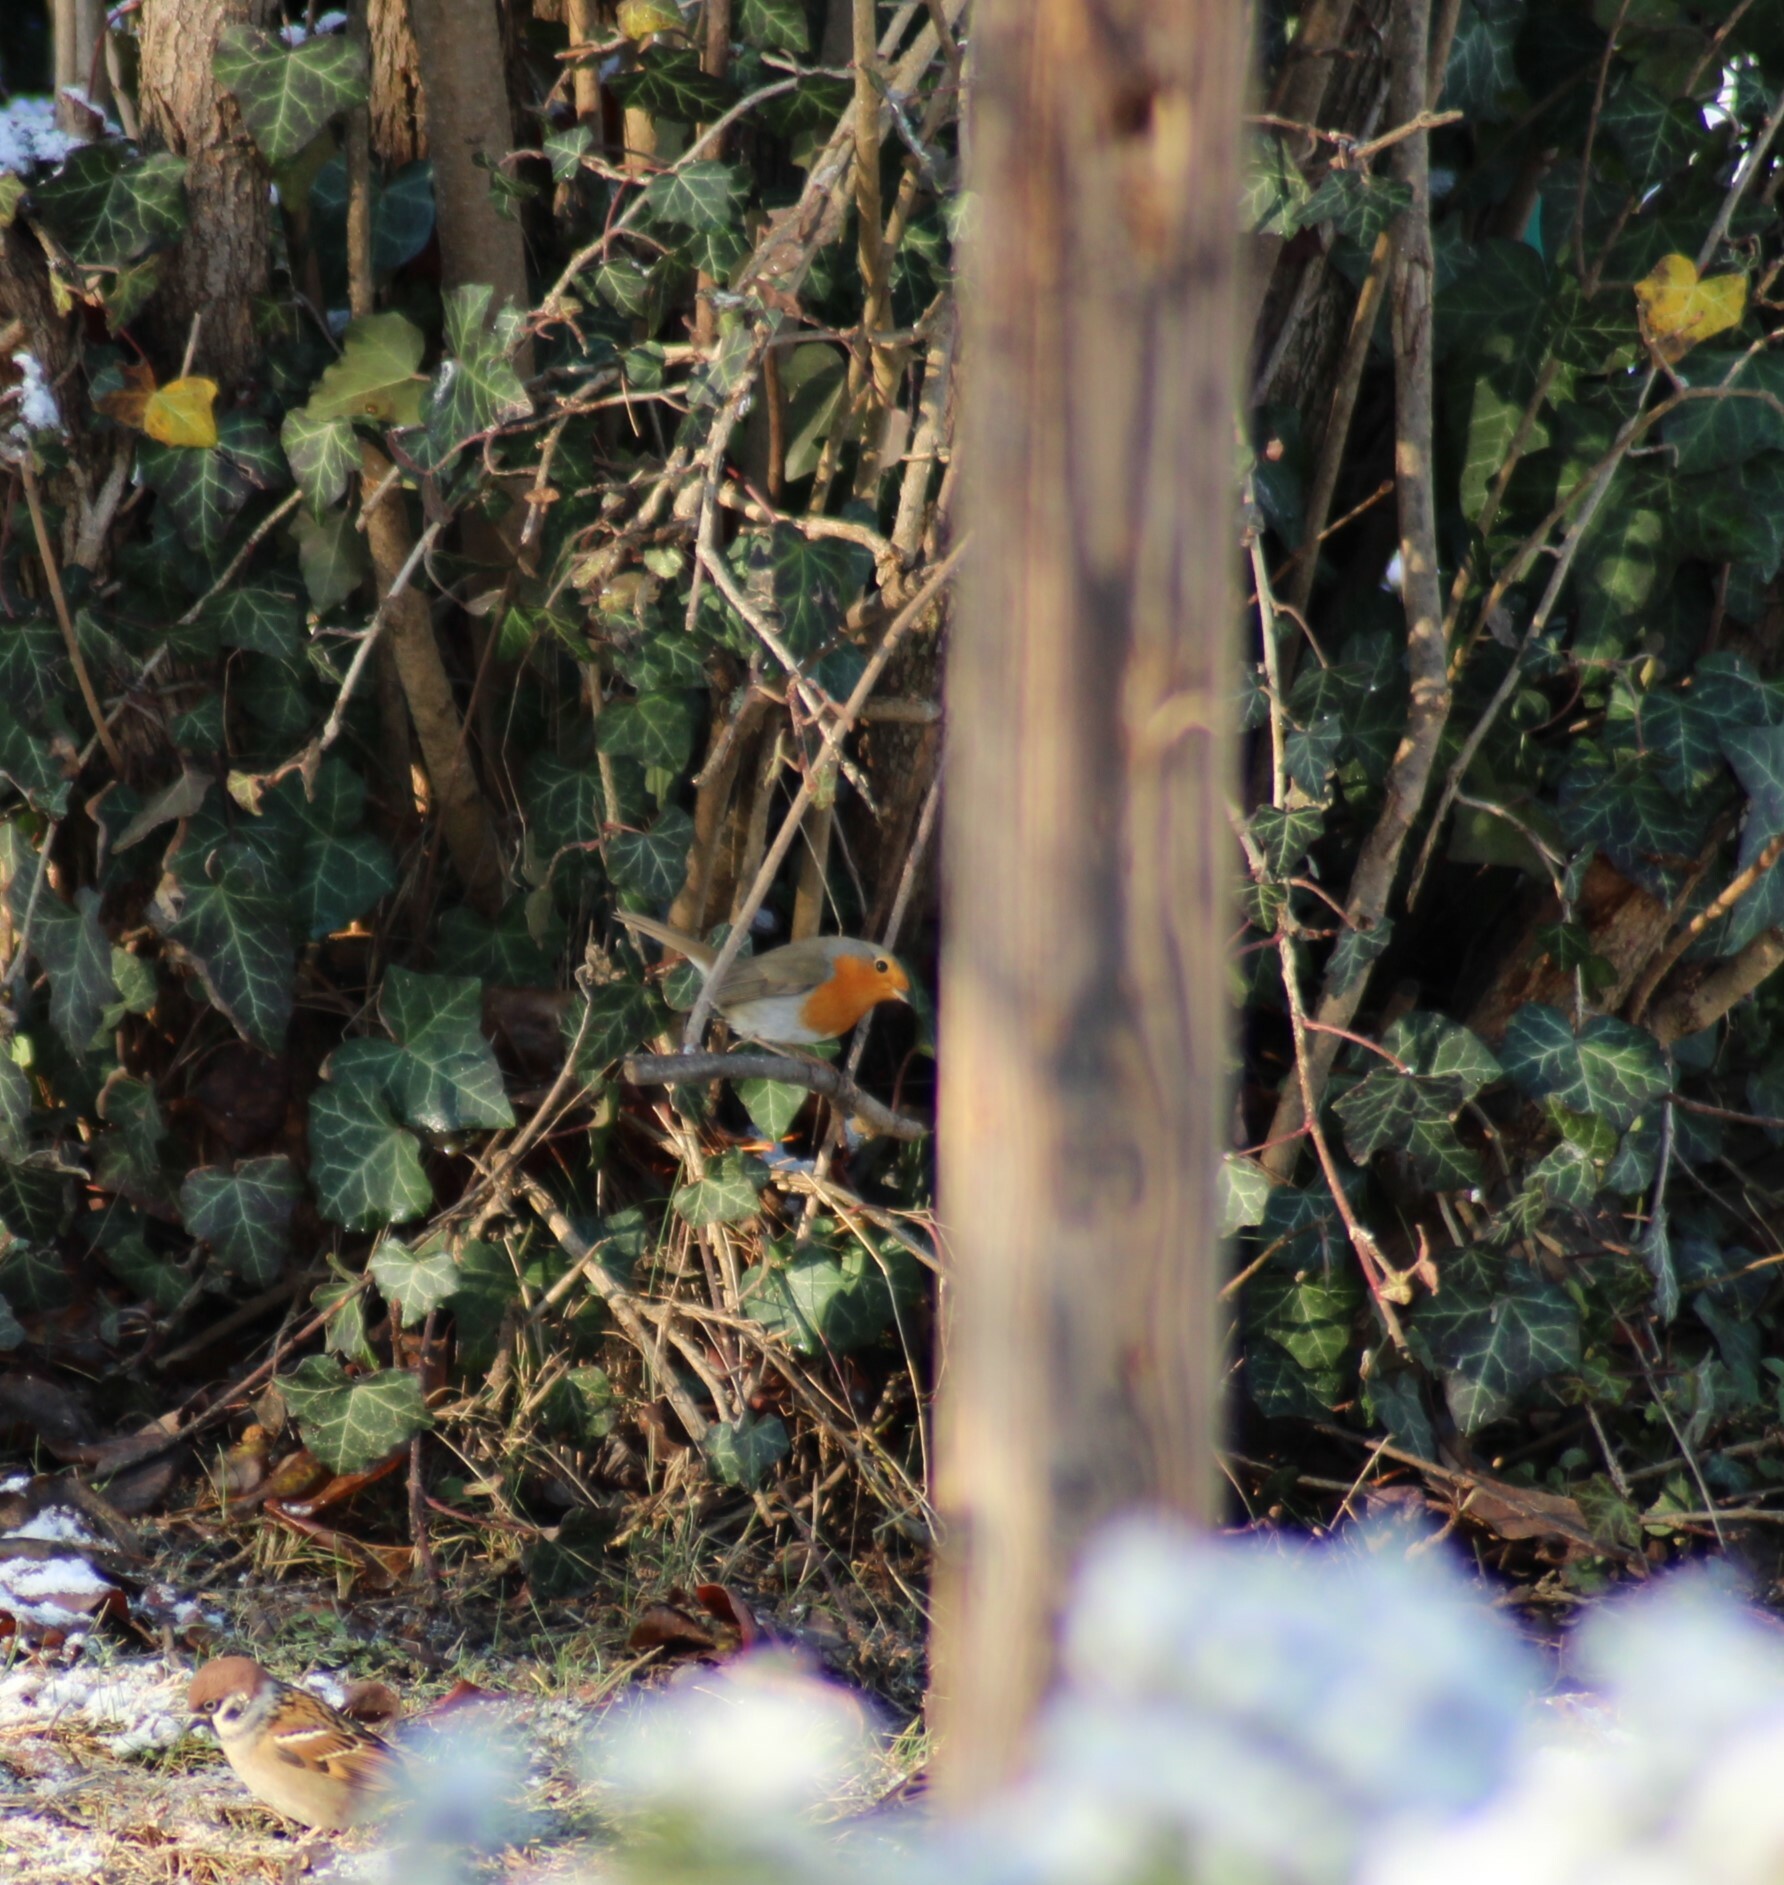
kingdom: Animalia
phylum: Chordata
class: Aves
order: Passeriformes
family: Muscicapidae
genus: Erithacus
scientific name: Erithacus rubecula
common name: European robin
